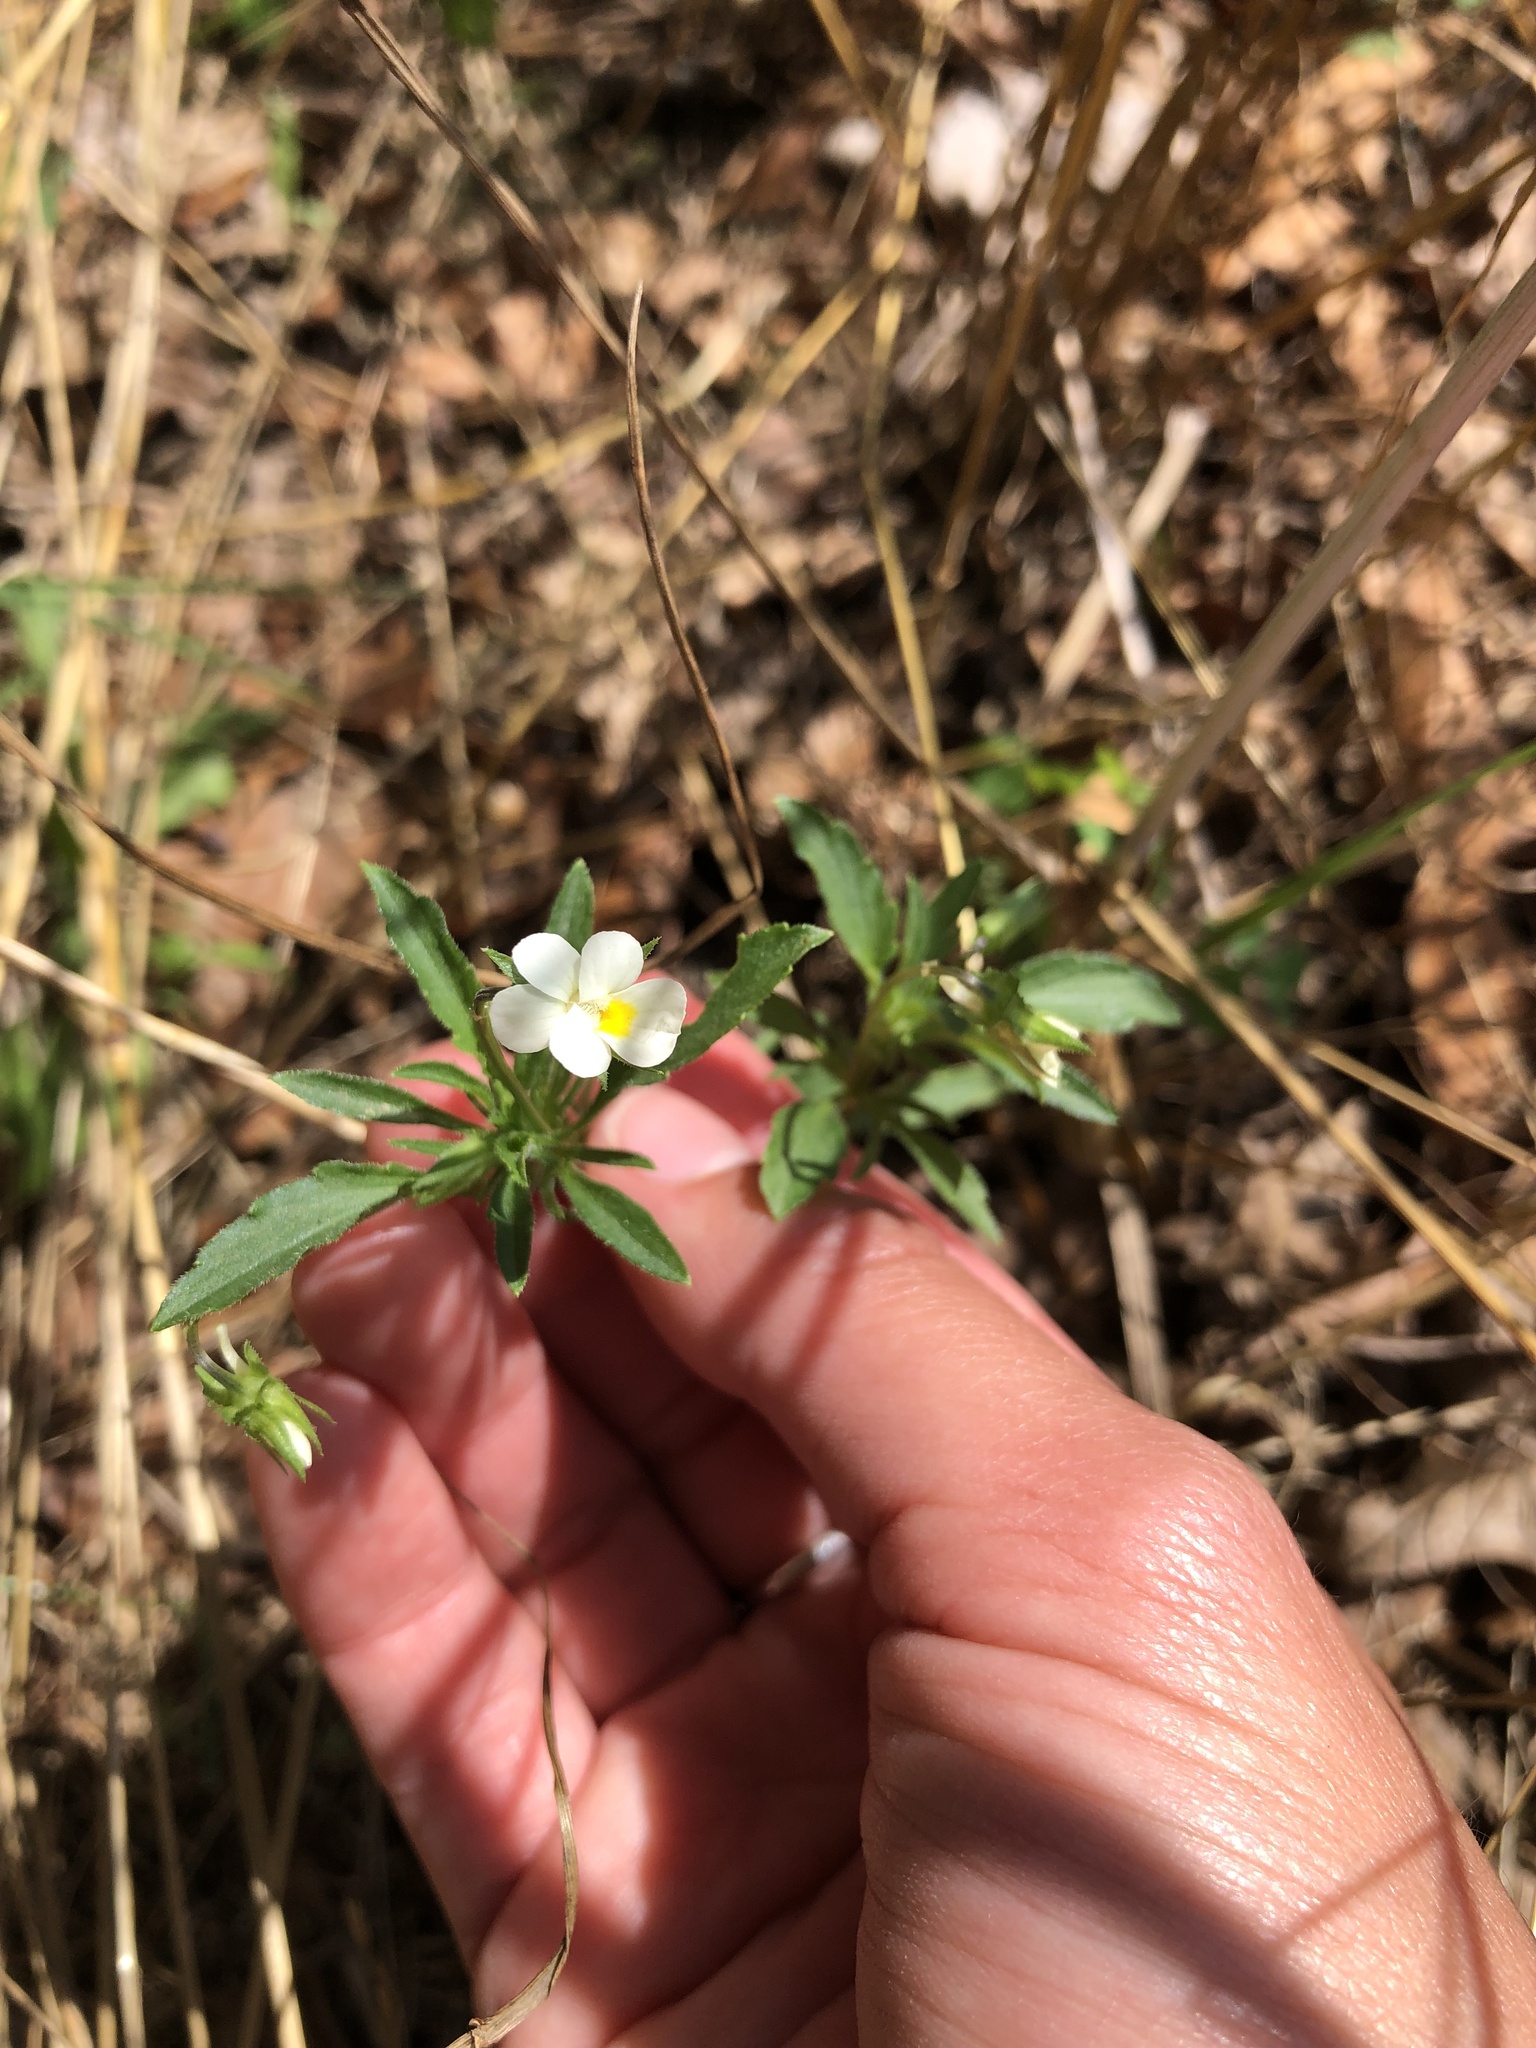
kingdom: Plantae
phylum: Tracheophyta
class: Magnoliopsida
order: Malpighiales
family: Violaceae
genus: Viola
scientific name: Viola arvensis
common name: Field pansy
